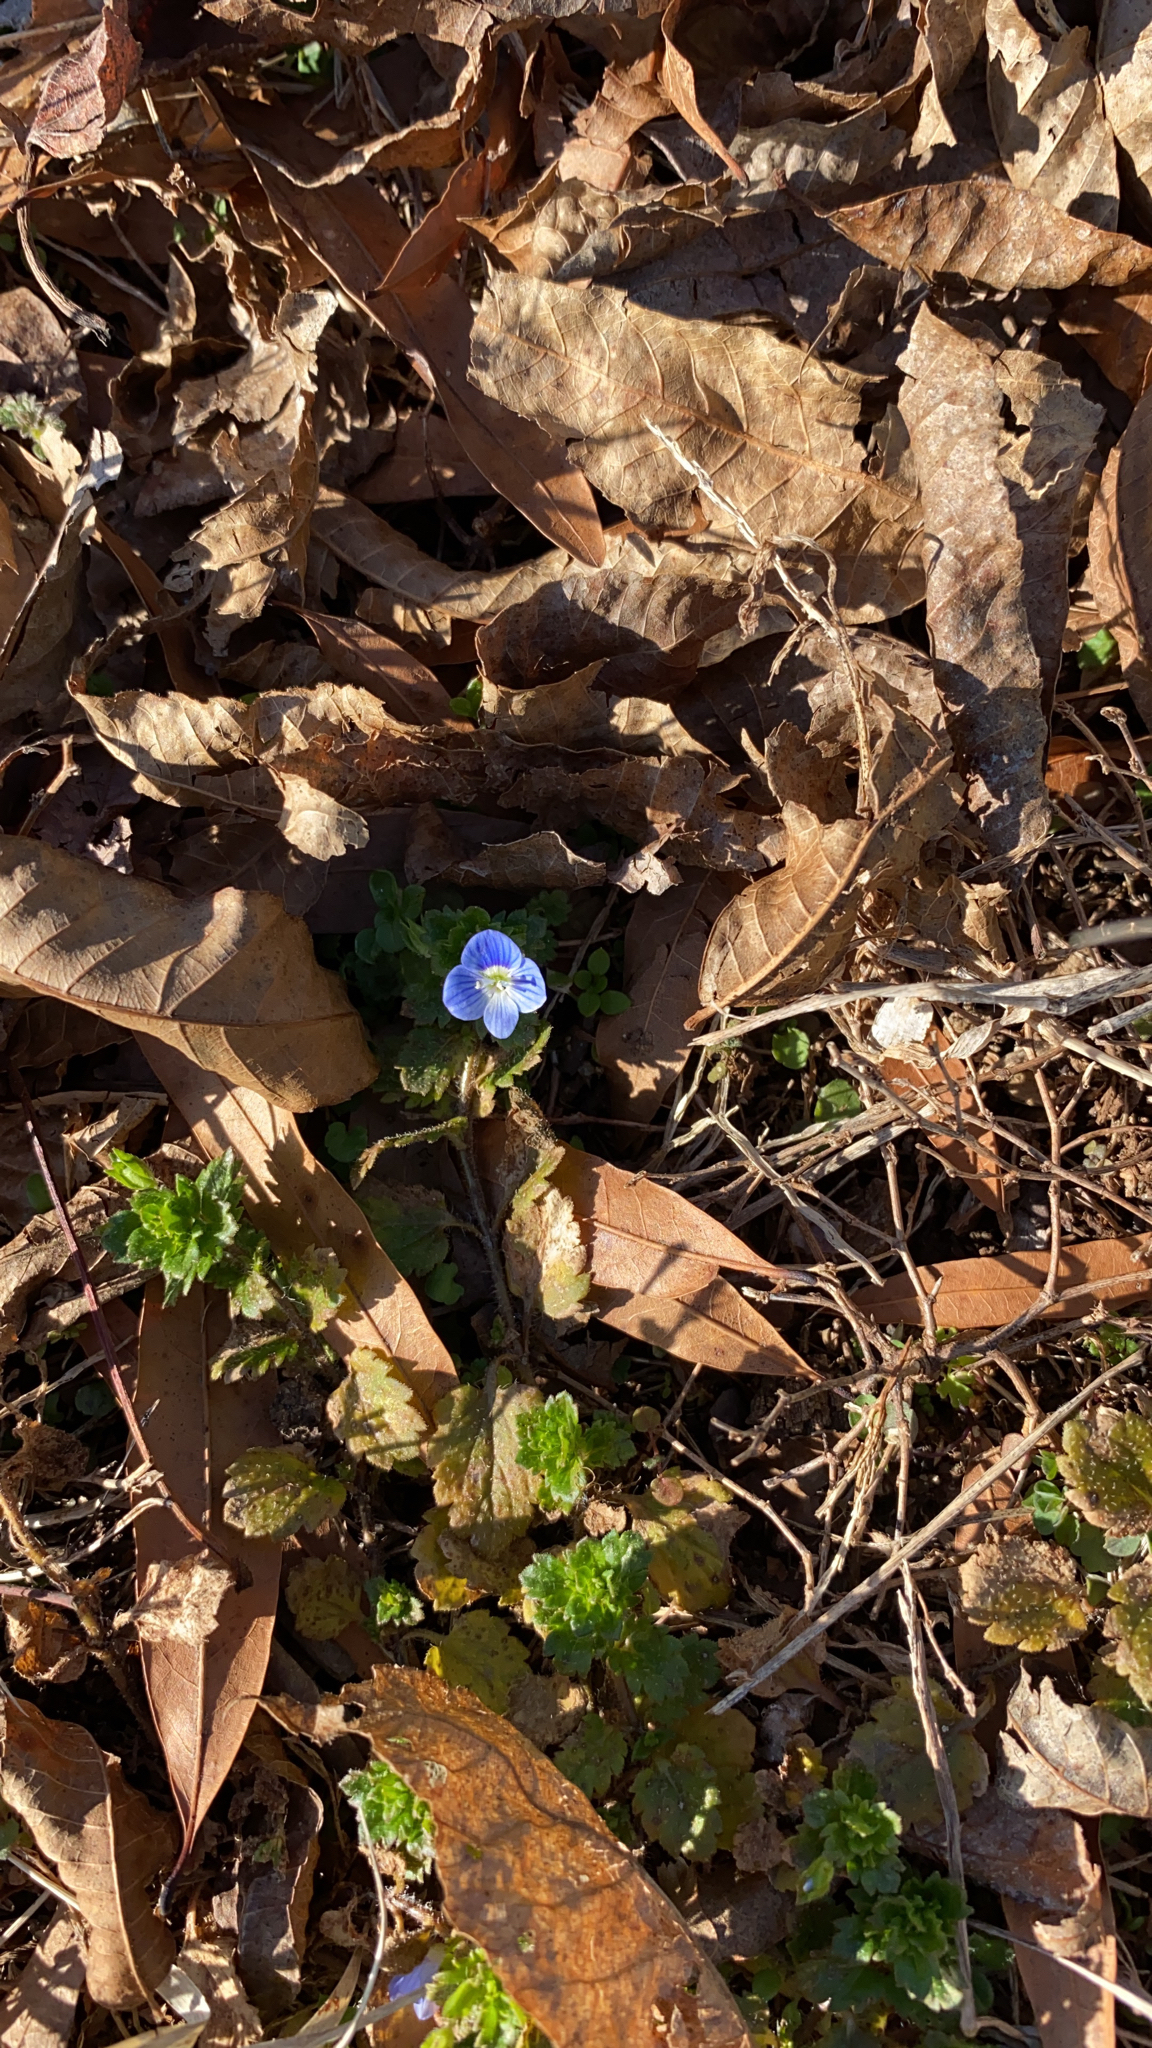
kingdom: Plantae
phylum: Tracheophyta
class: Magnoliopsida
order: Lamiales
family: Plantaginaceae
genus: Veronica
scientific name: Veronica persica
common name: Common field-speedwell
